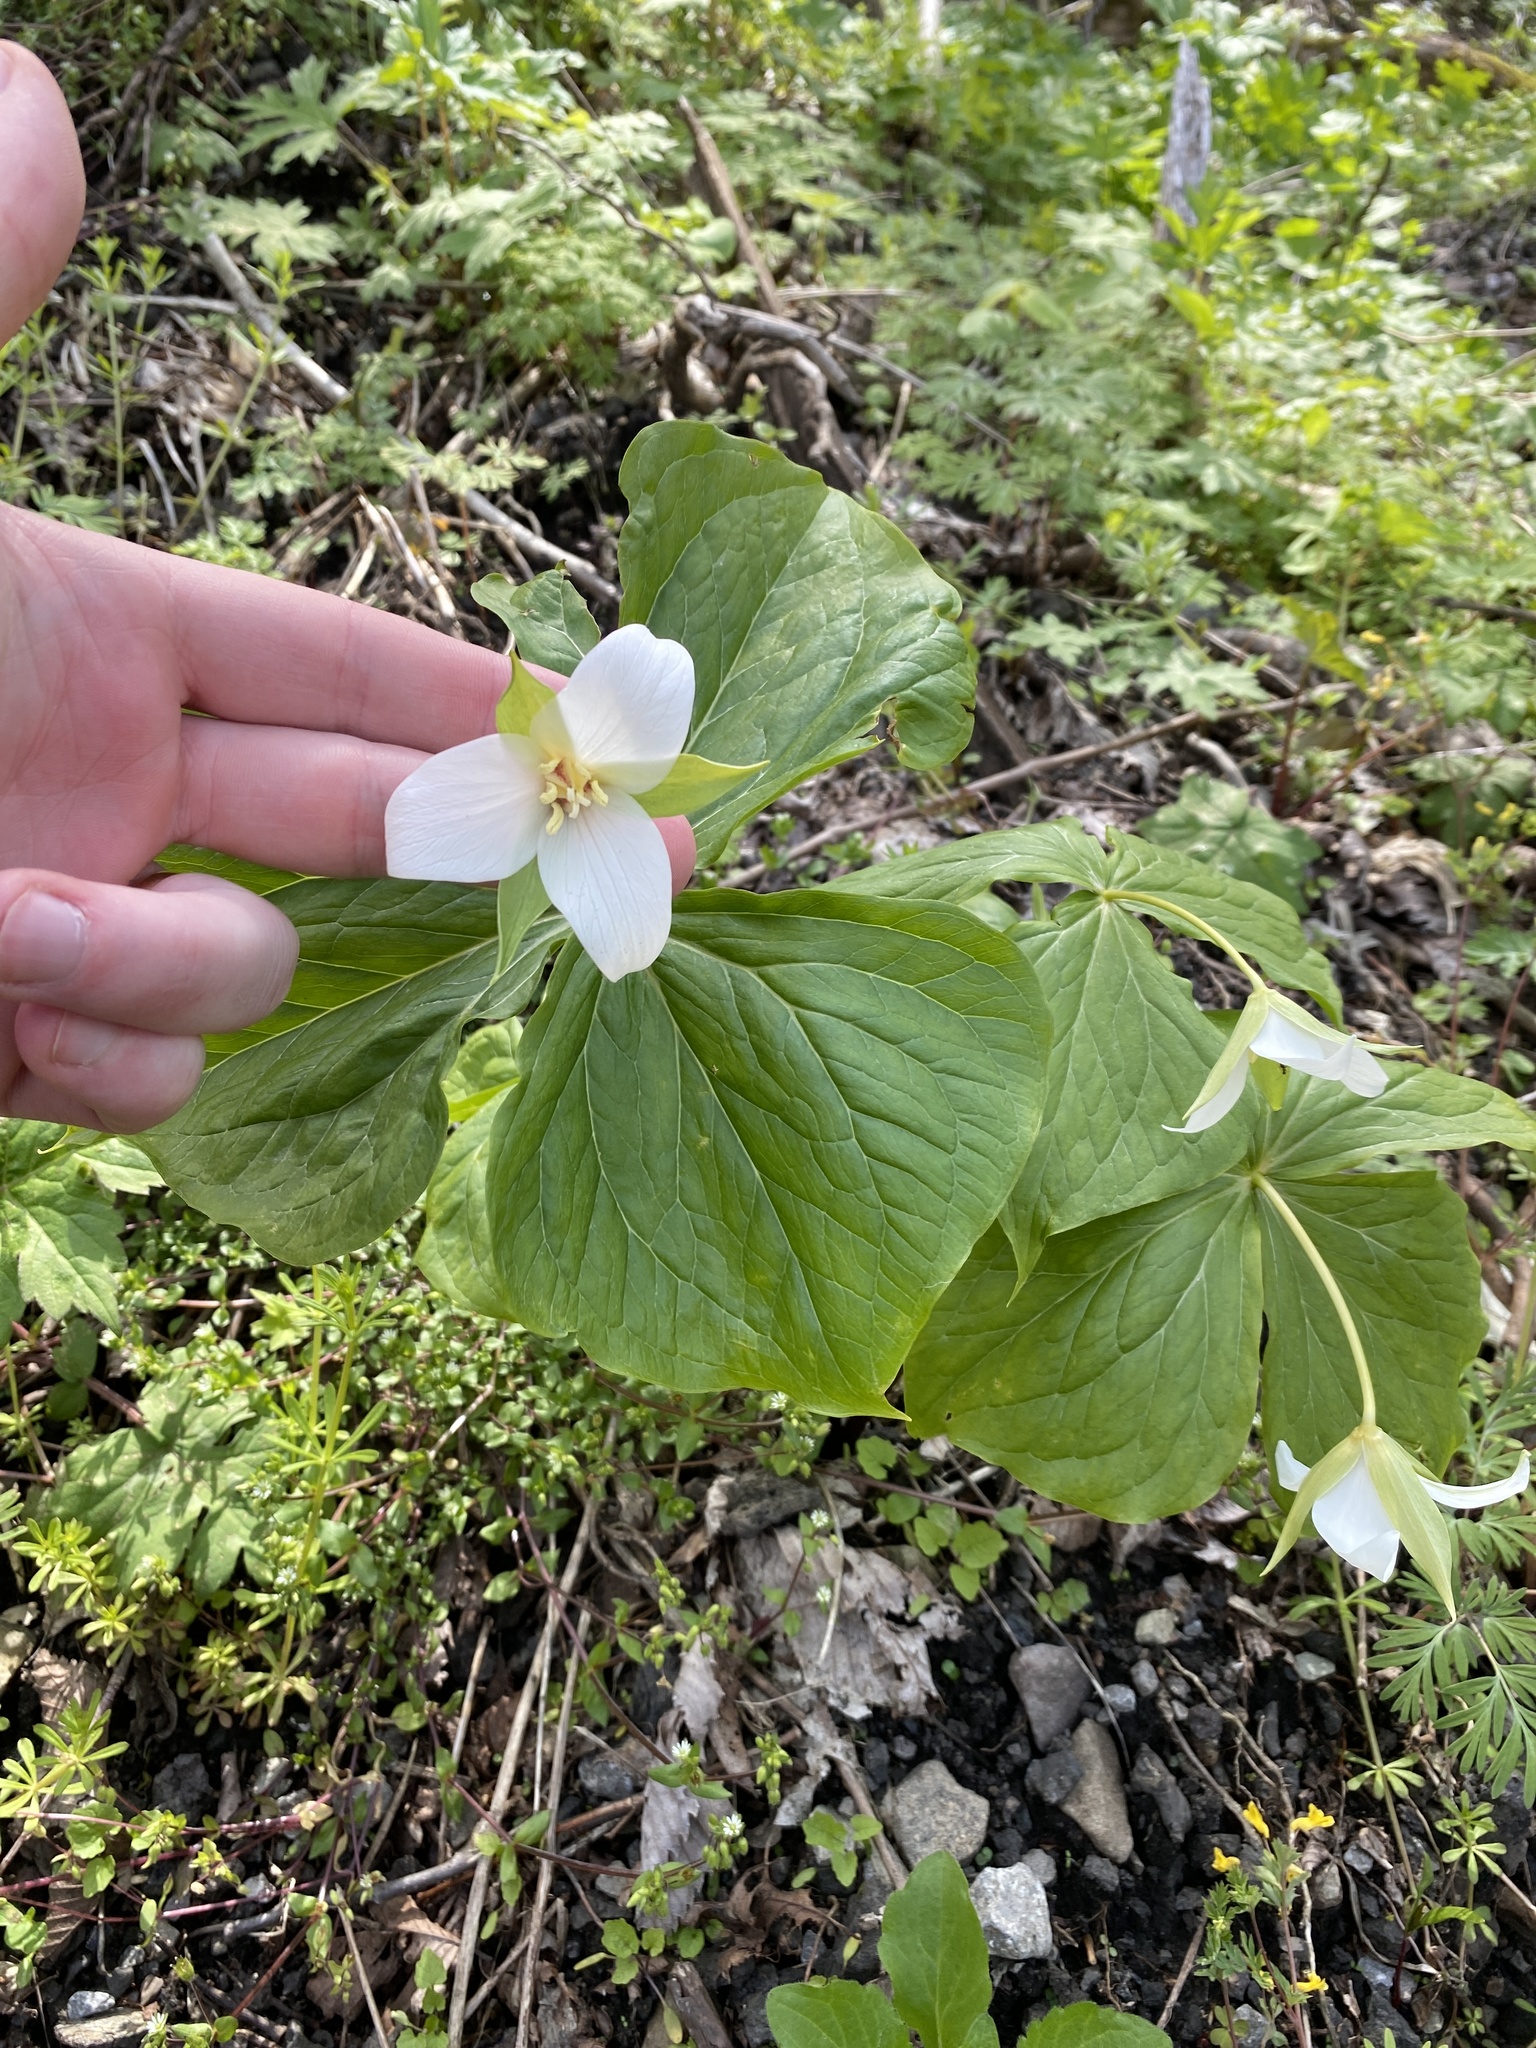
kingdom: Plantae
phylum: Tracheophyta
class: Liliopsida
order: Liliales
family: Melanthiaceae
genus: Trillium
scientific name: Trillium flexipes
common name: Drooping trillium
